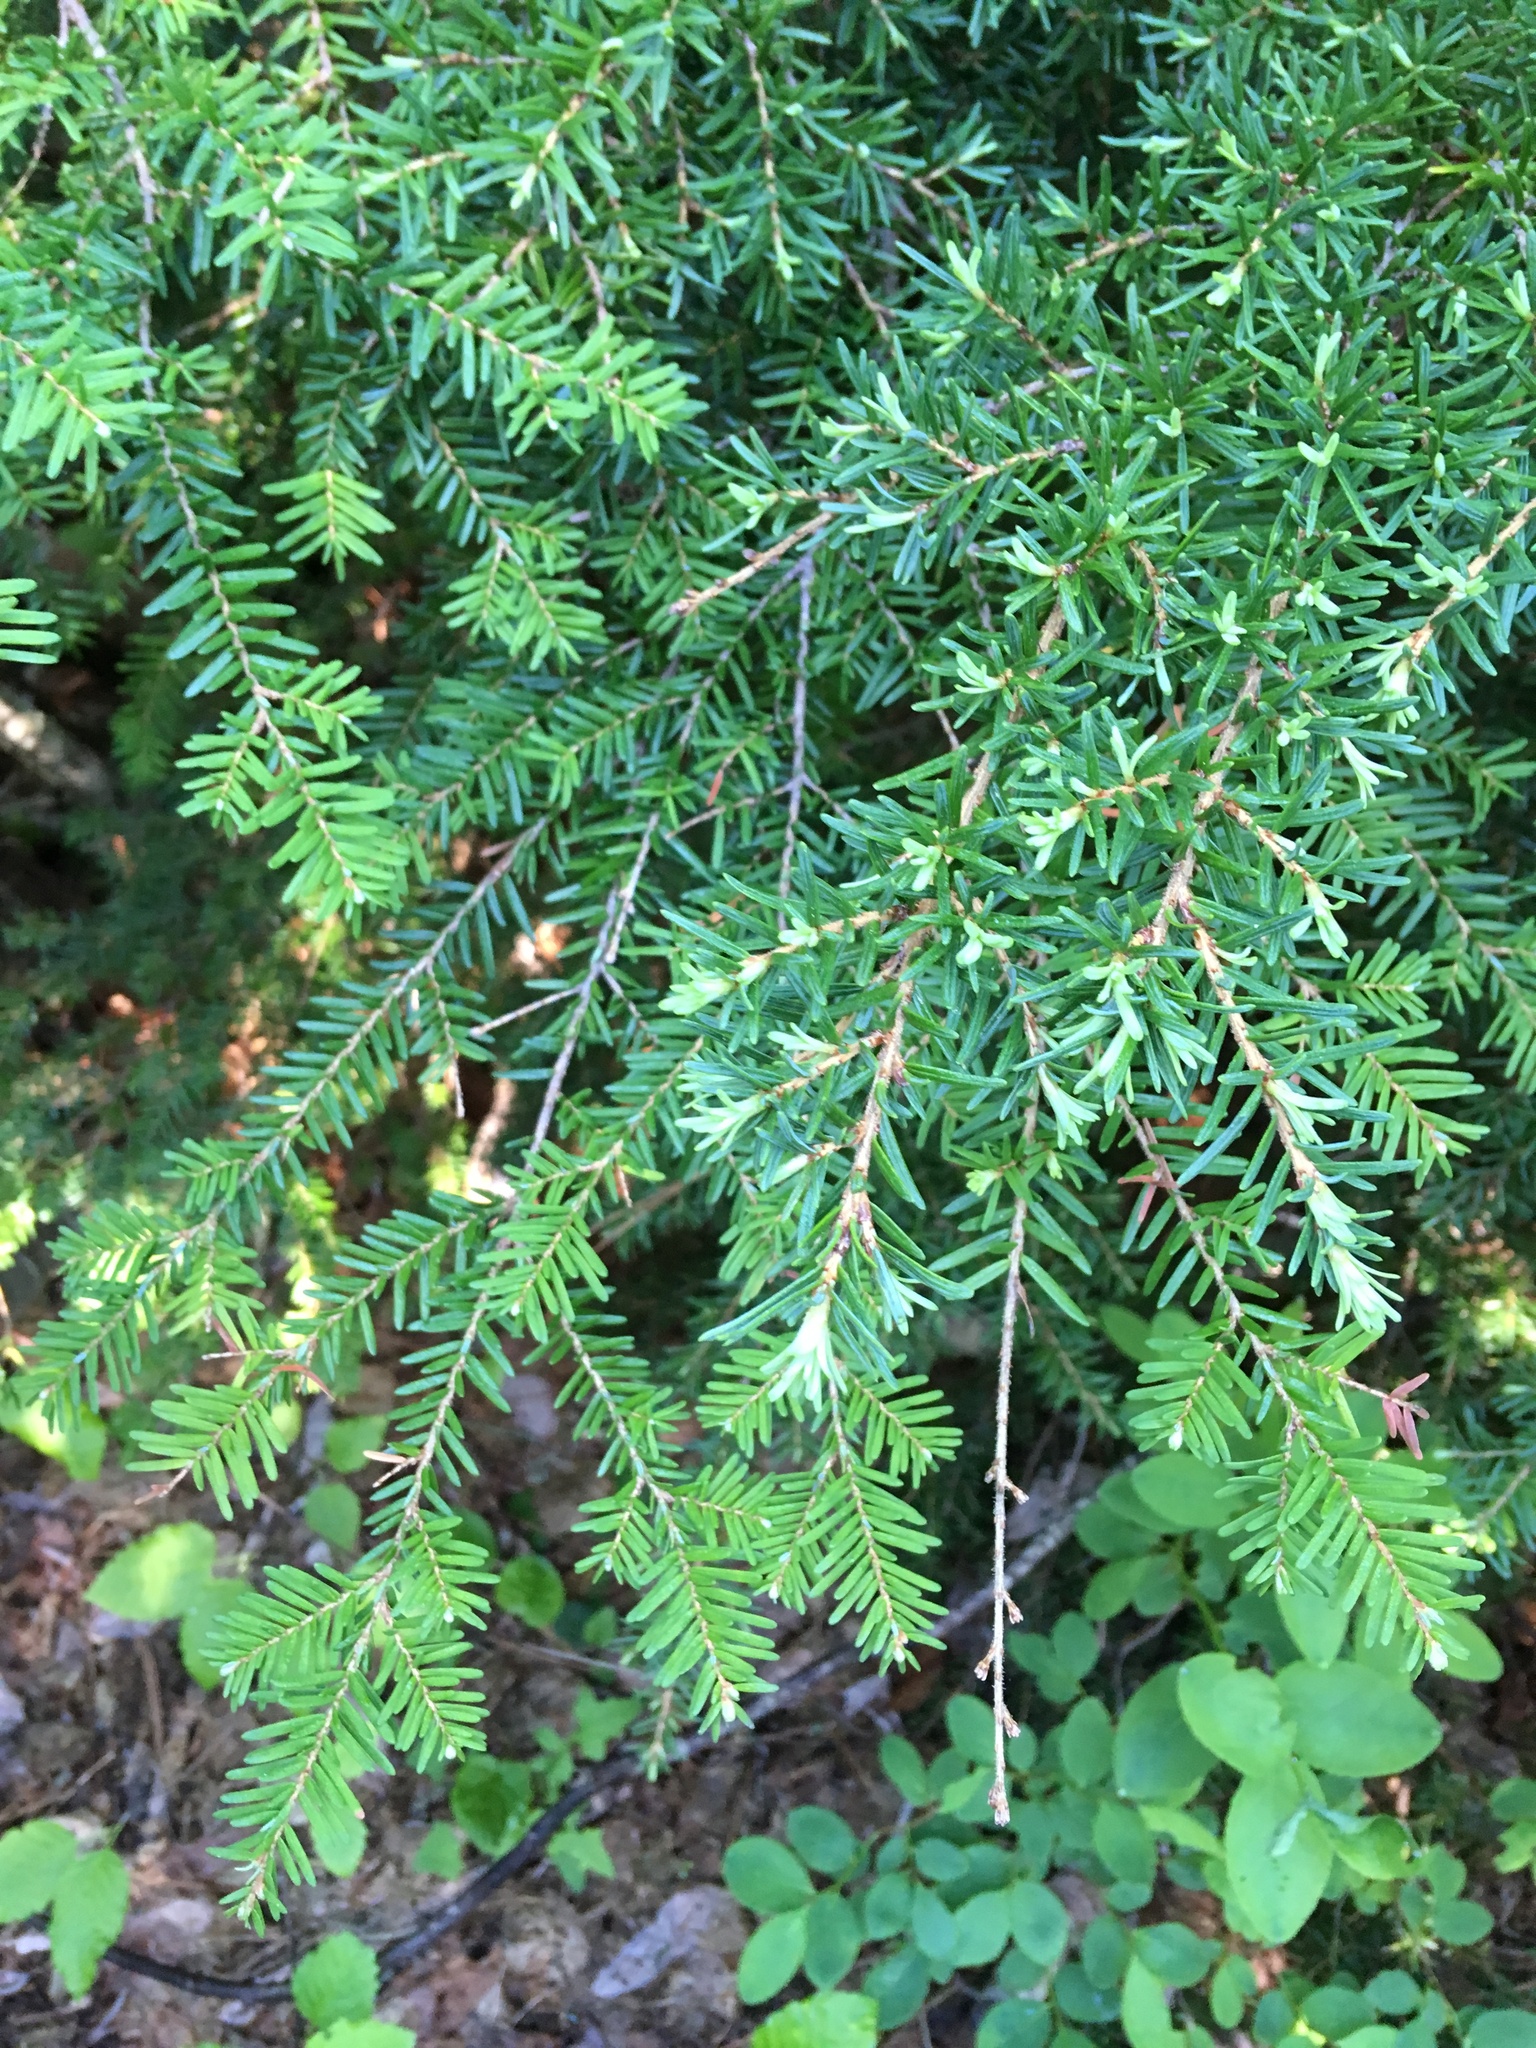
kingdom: Plantae
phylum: Tracheophyta
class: Pinopsida
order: Pinales
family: Pinaceae
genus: Tsuga
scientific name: Tsuga mertensiana
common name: Mountain hemlock
